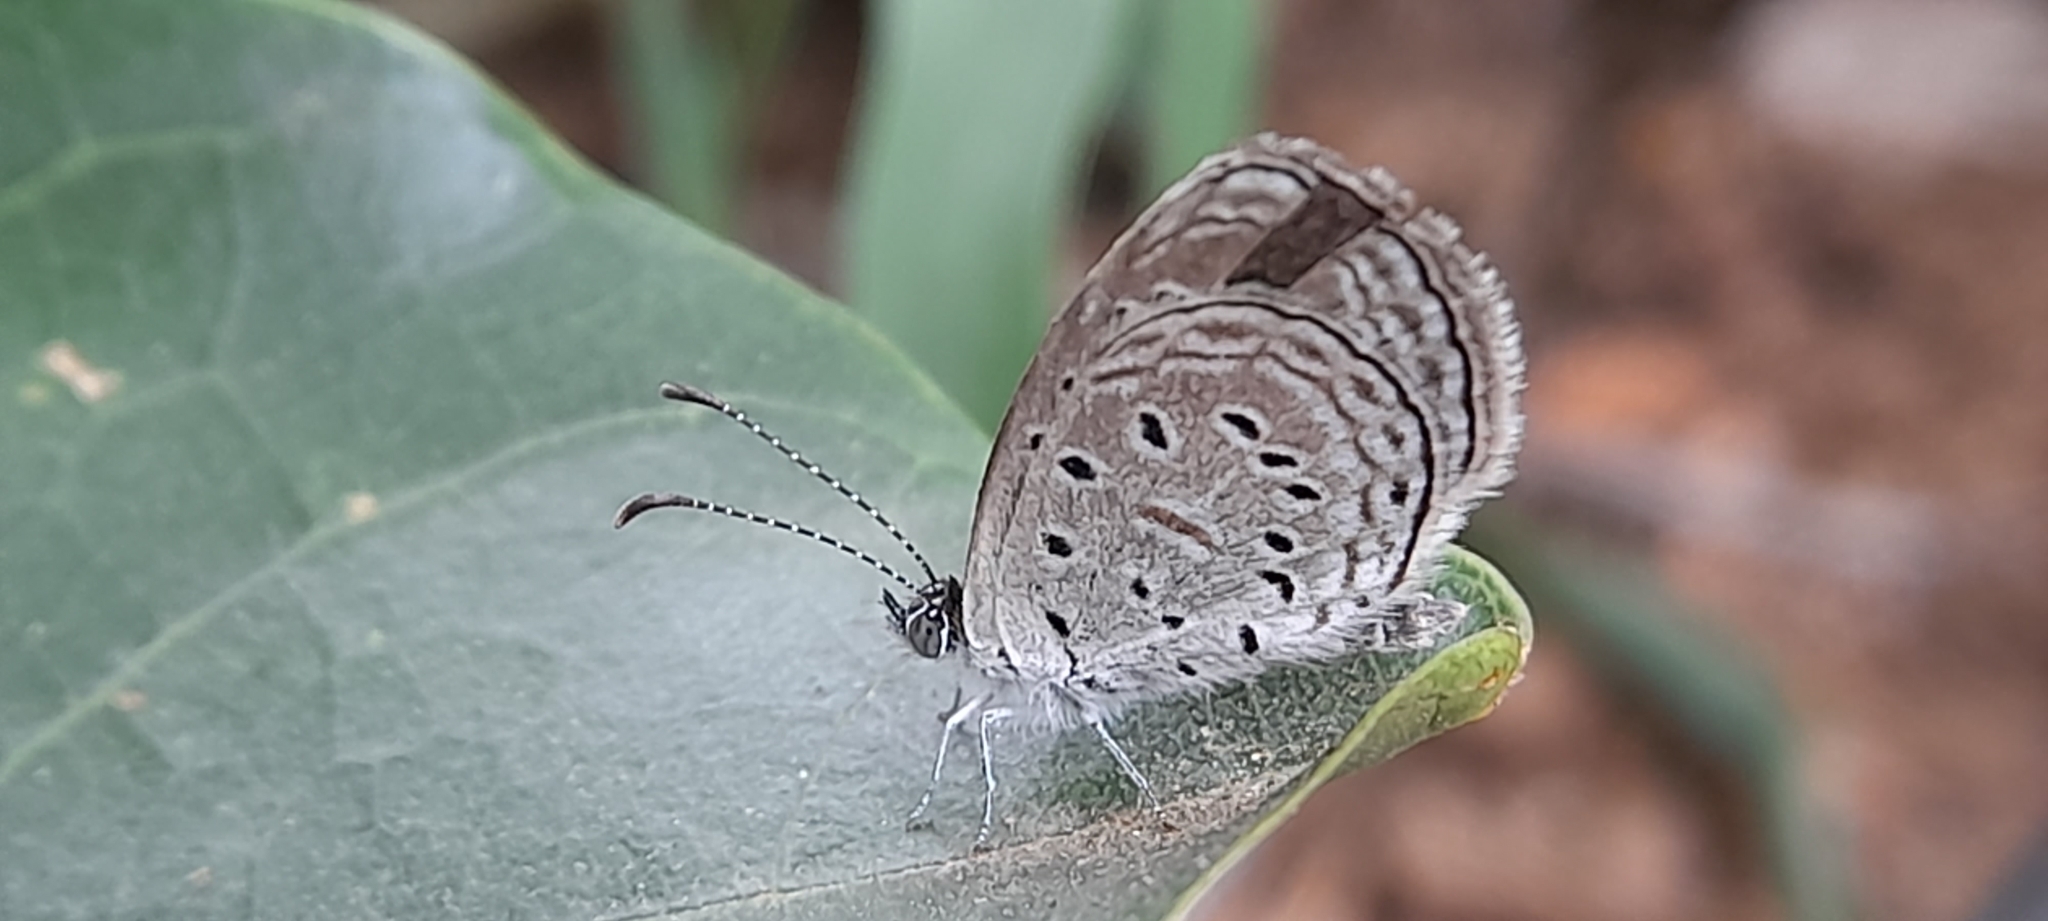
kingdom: Animalia
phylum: Arthropoda
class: Insecta
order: Lepidoptera
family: Lycaenidae
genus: Zizula
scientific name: Zizula hylax
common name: Gaika blue
